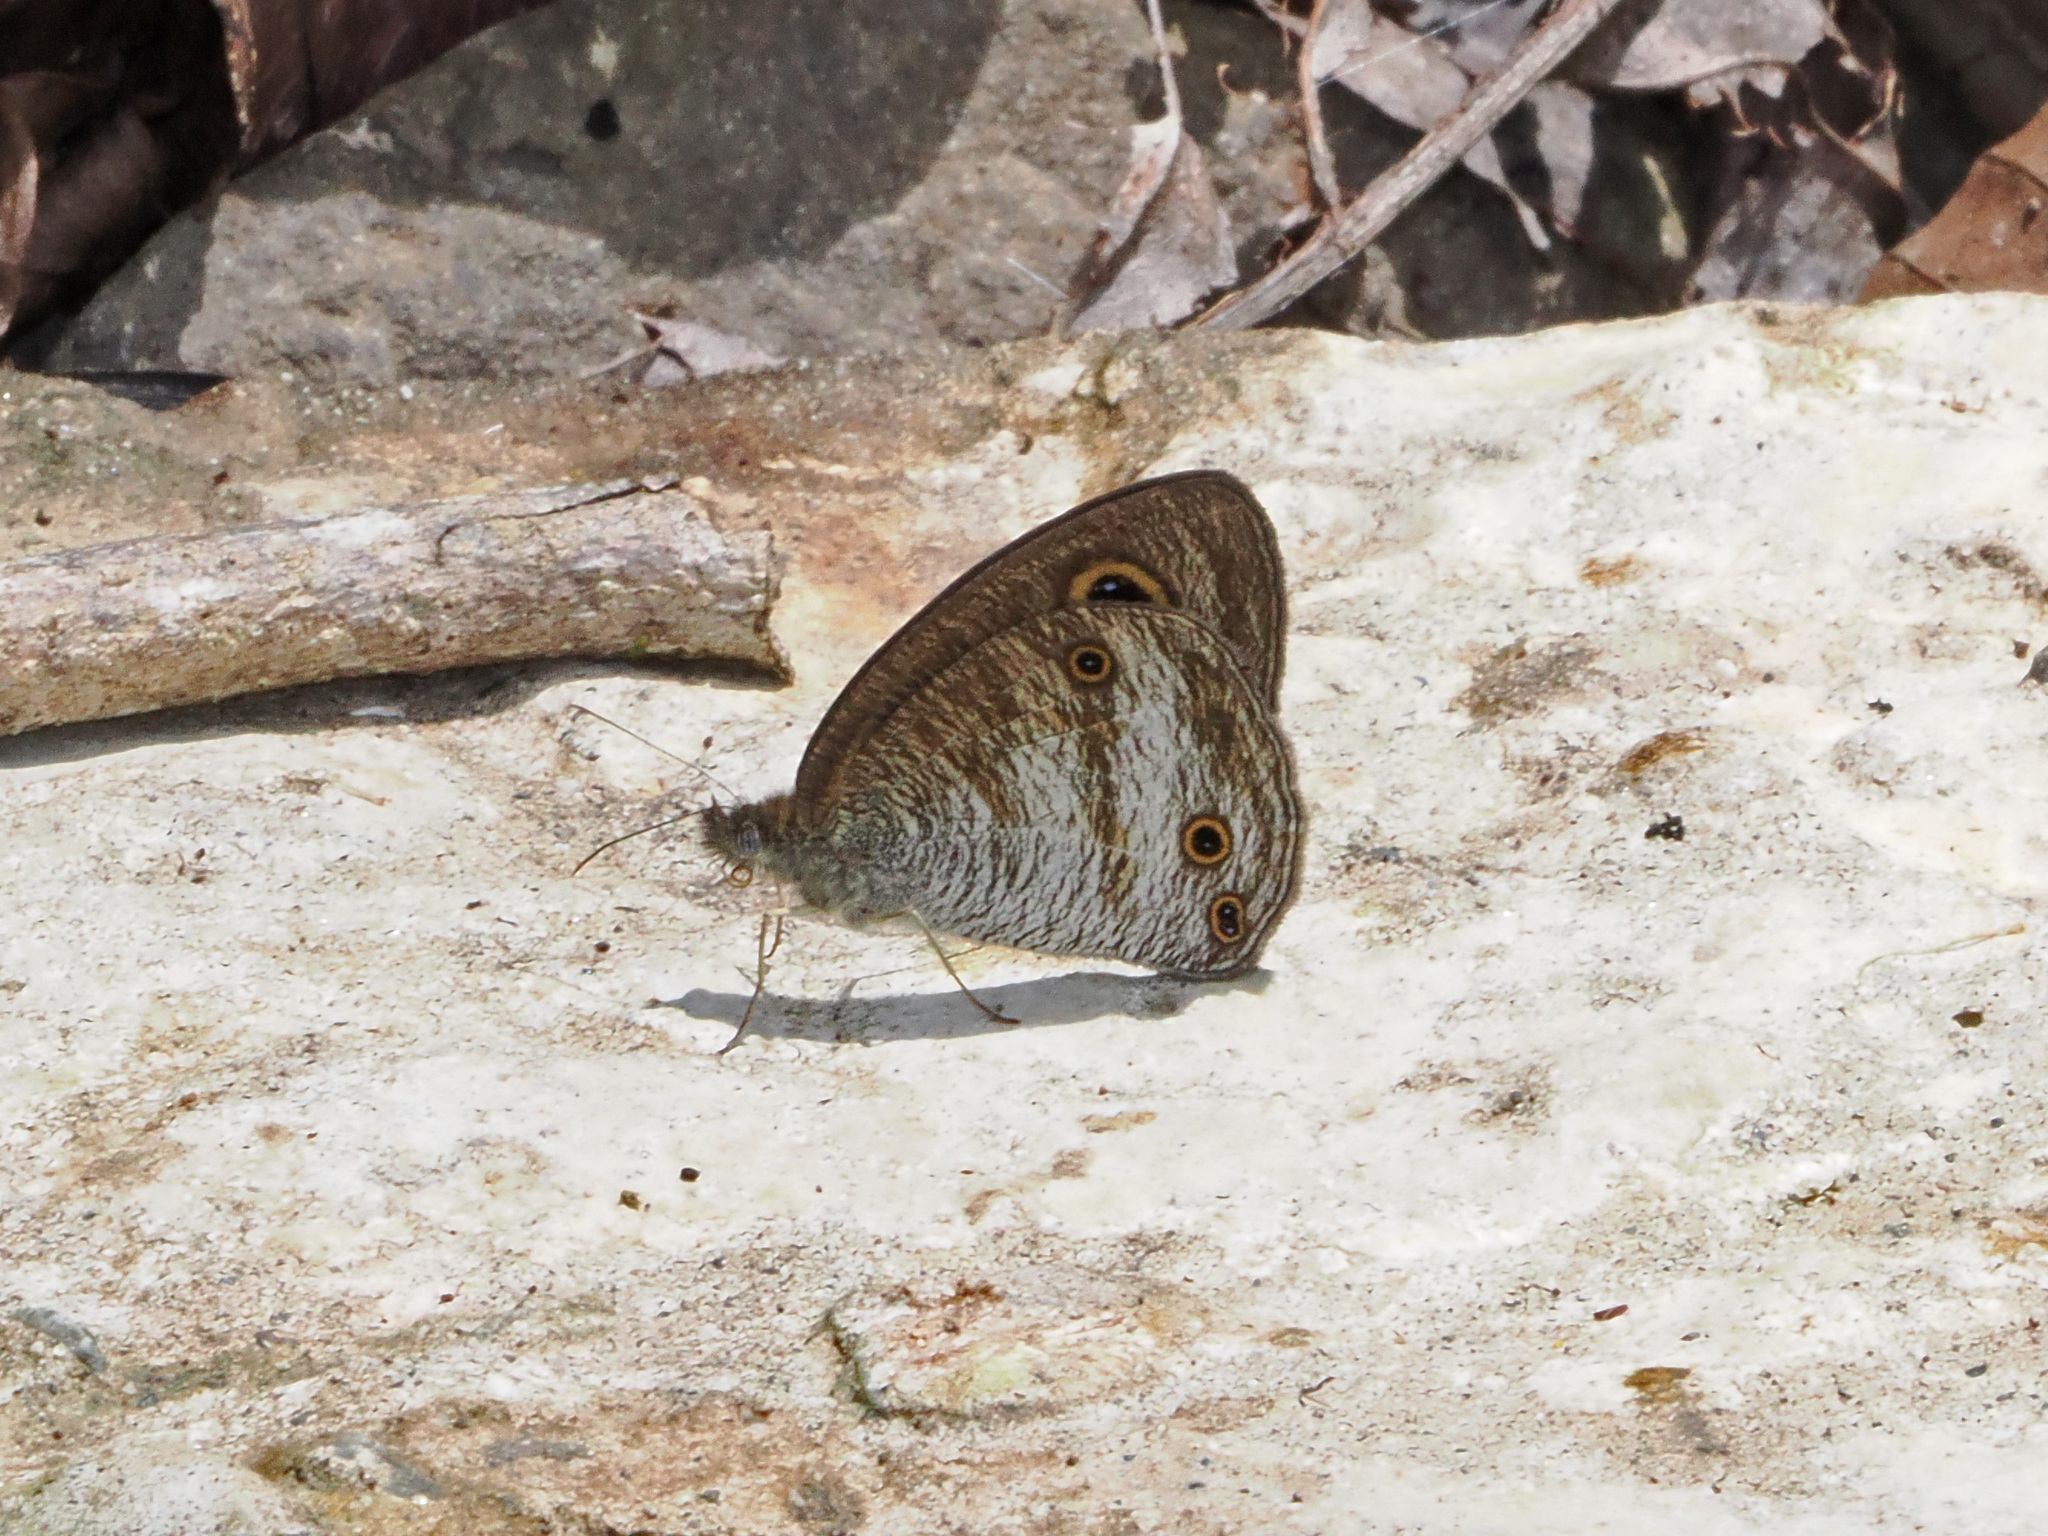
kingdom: Animalia
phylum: Arthropoda
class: Insecta
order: Lepidoptera
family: Nymphalidae
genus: Ypthima
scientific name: Ypthima pandocus
